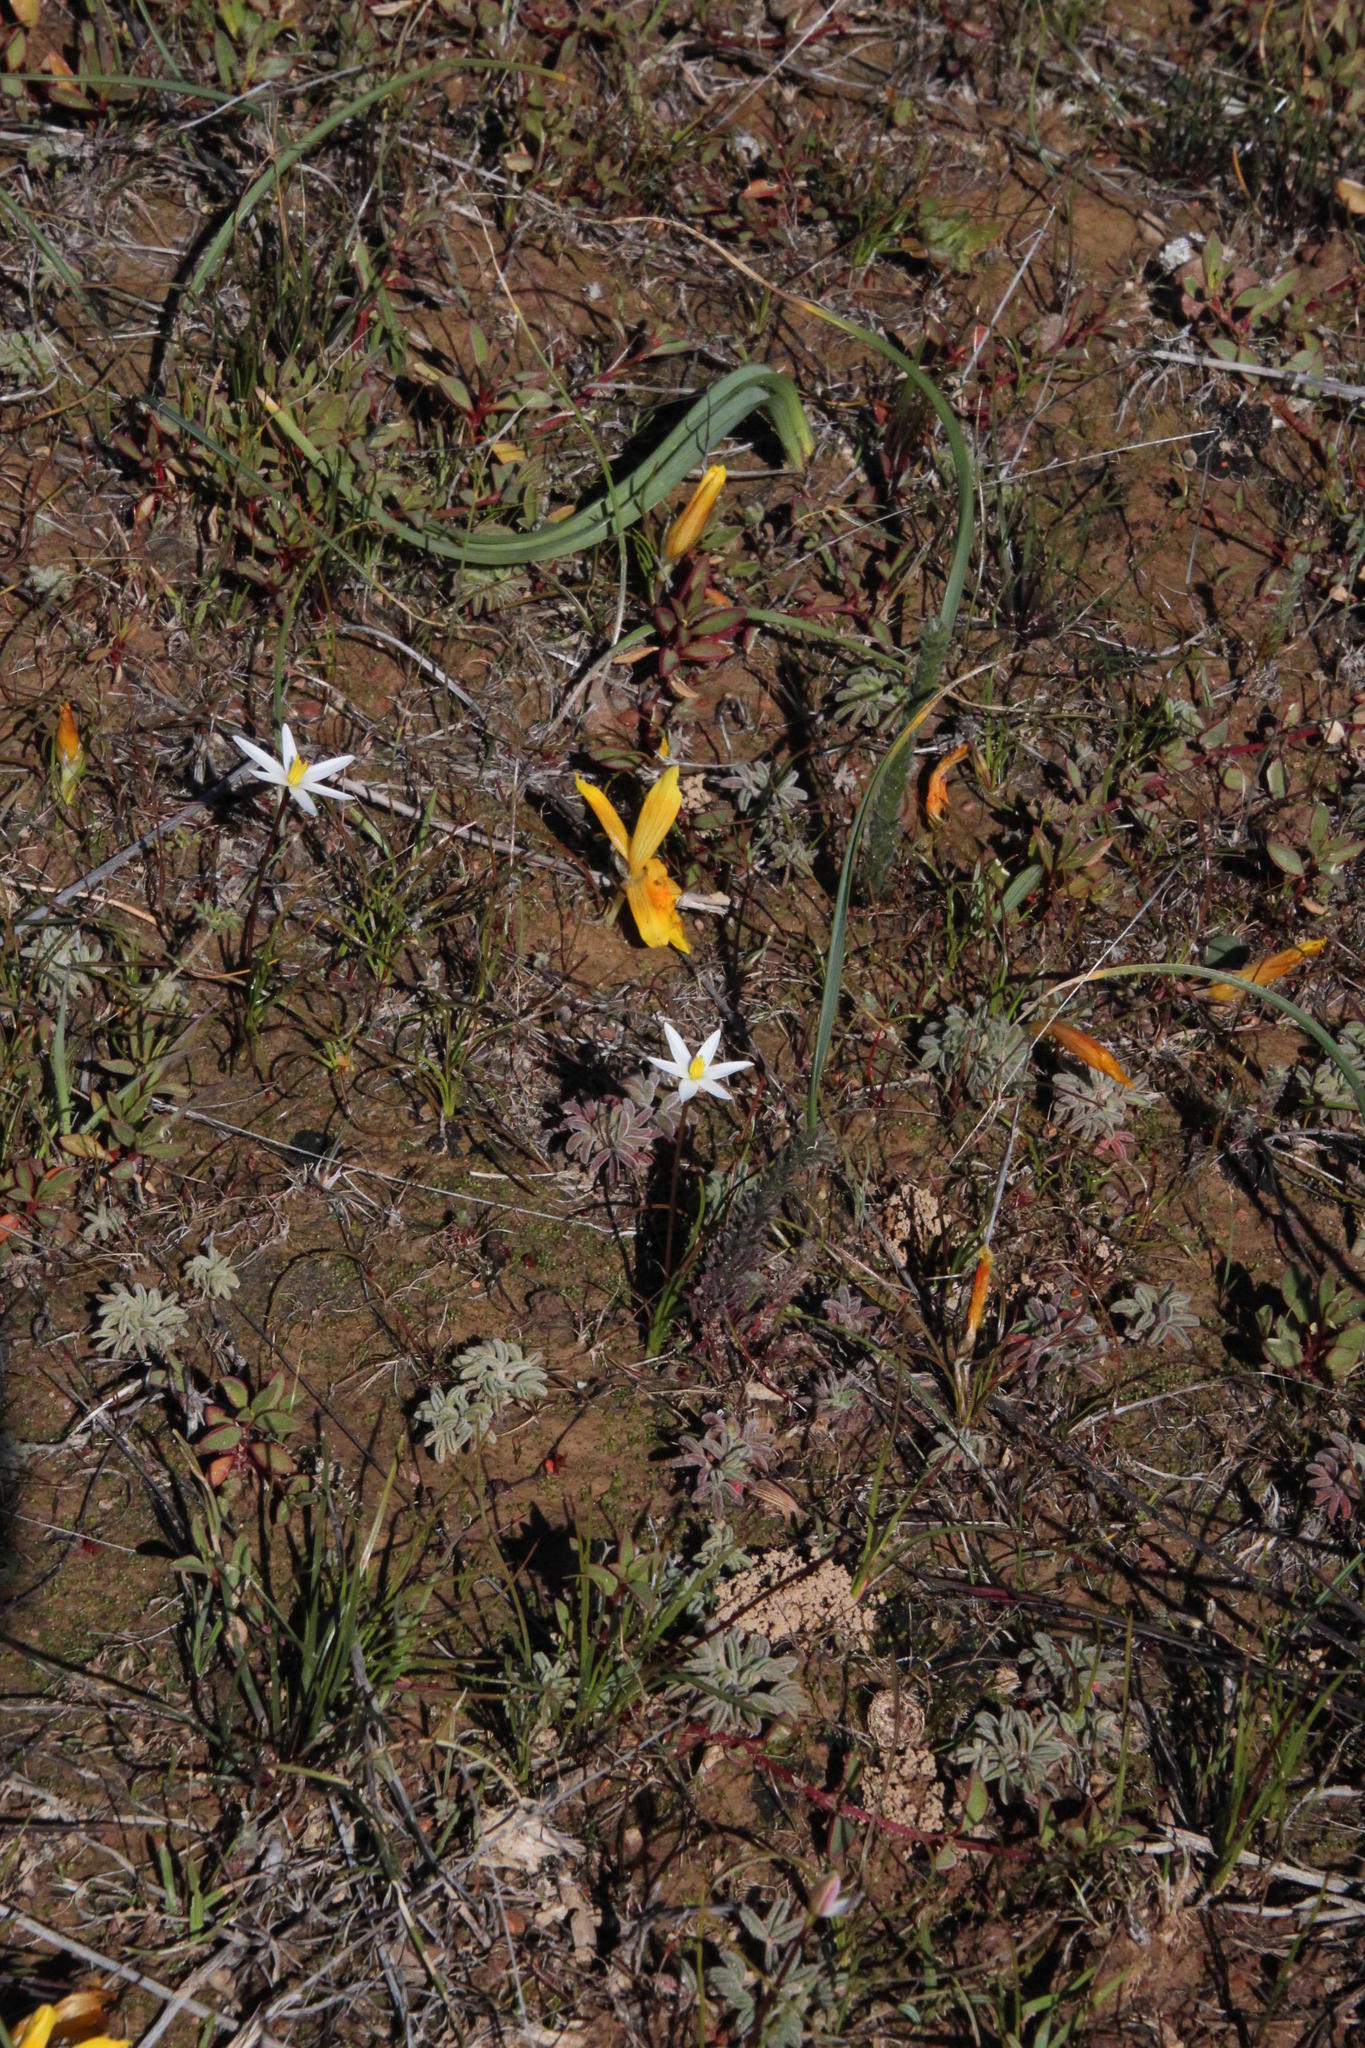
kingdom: Plantae
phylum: Tracheophyta
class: Liliopsida
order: Asparagales
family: Hypoxidaceae
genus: Pauridia
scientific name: Pauridia serrata
